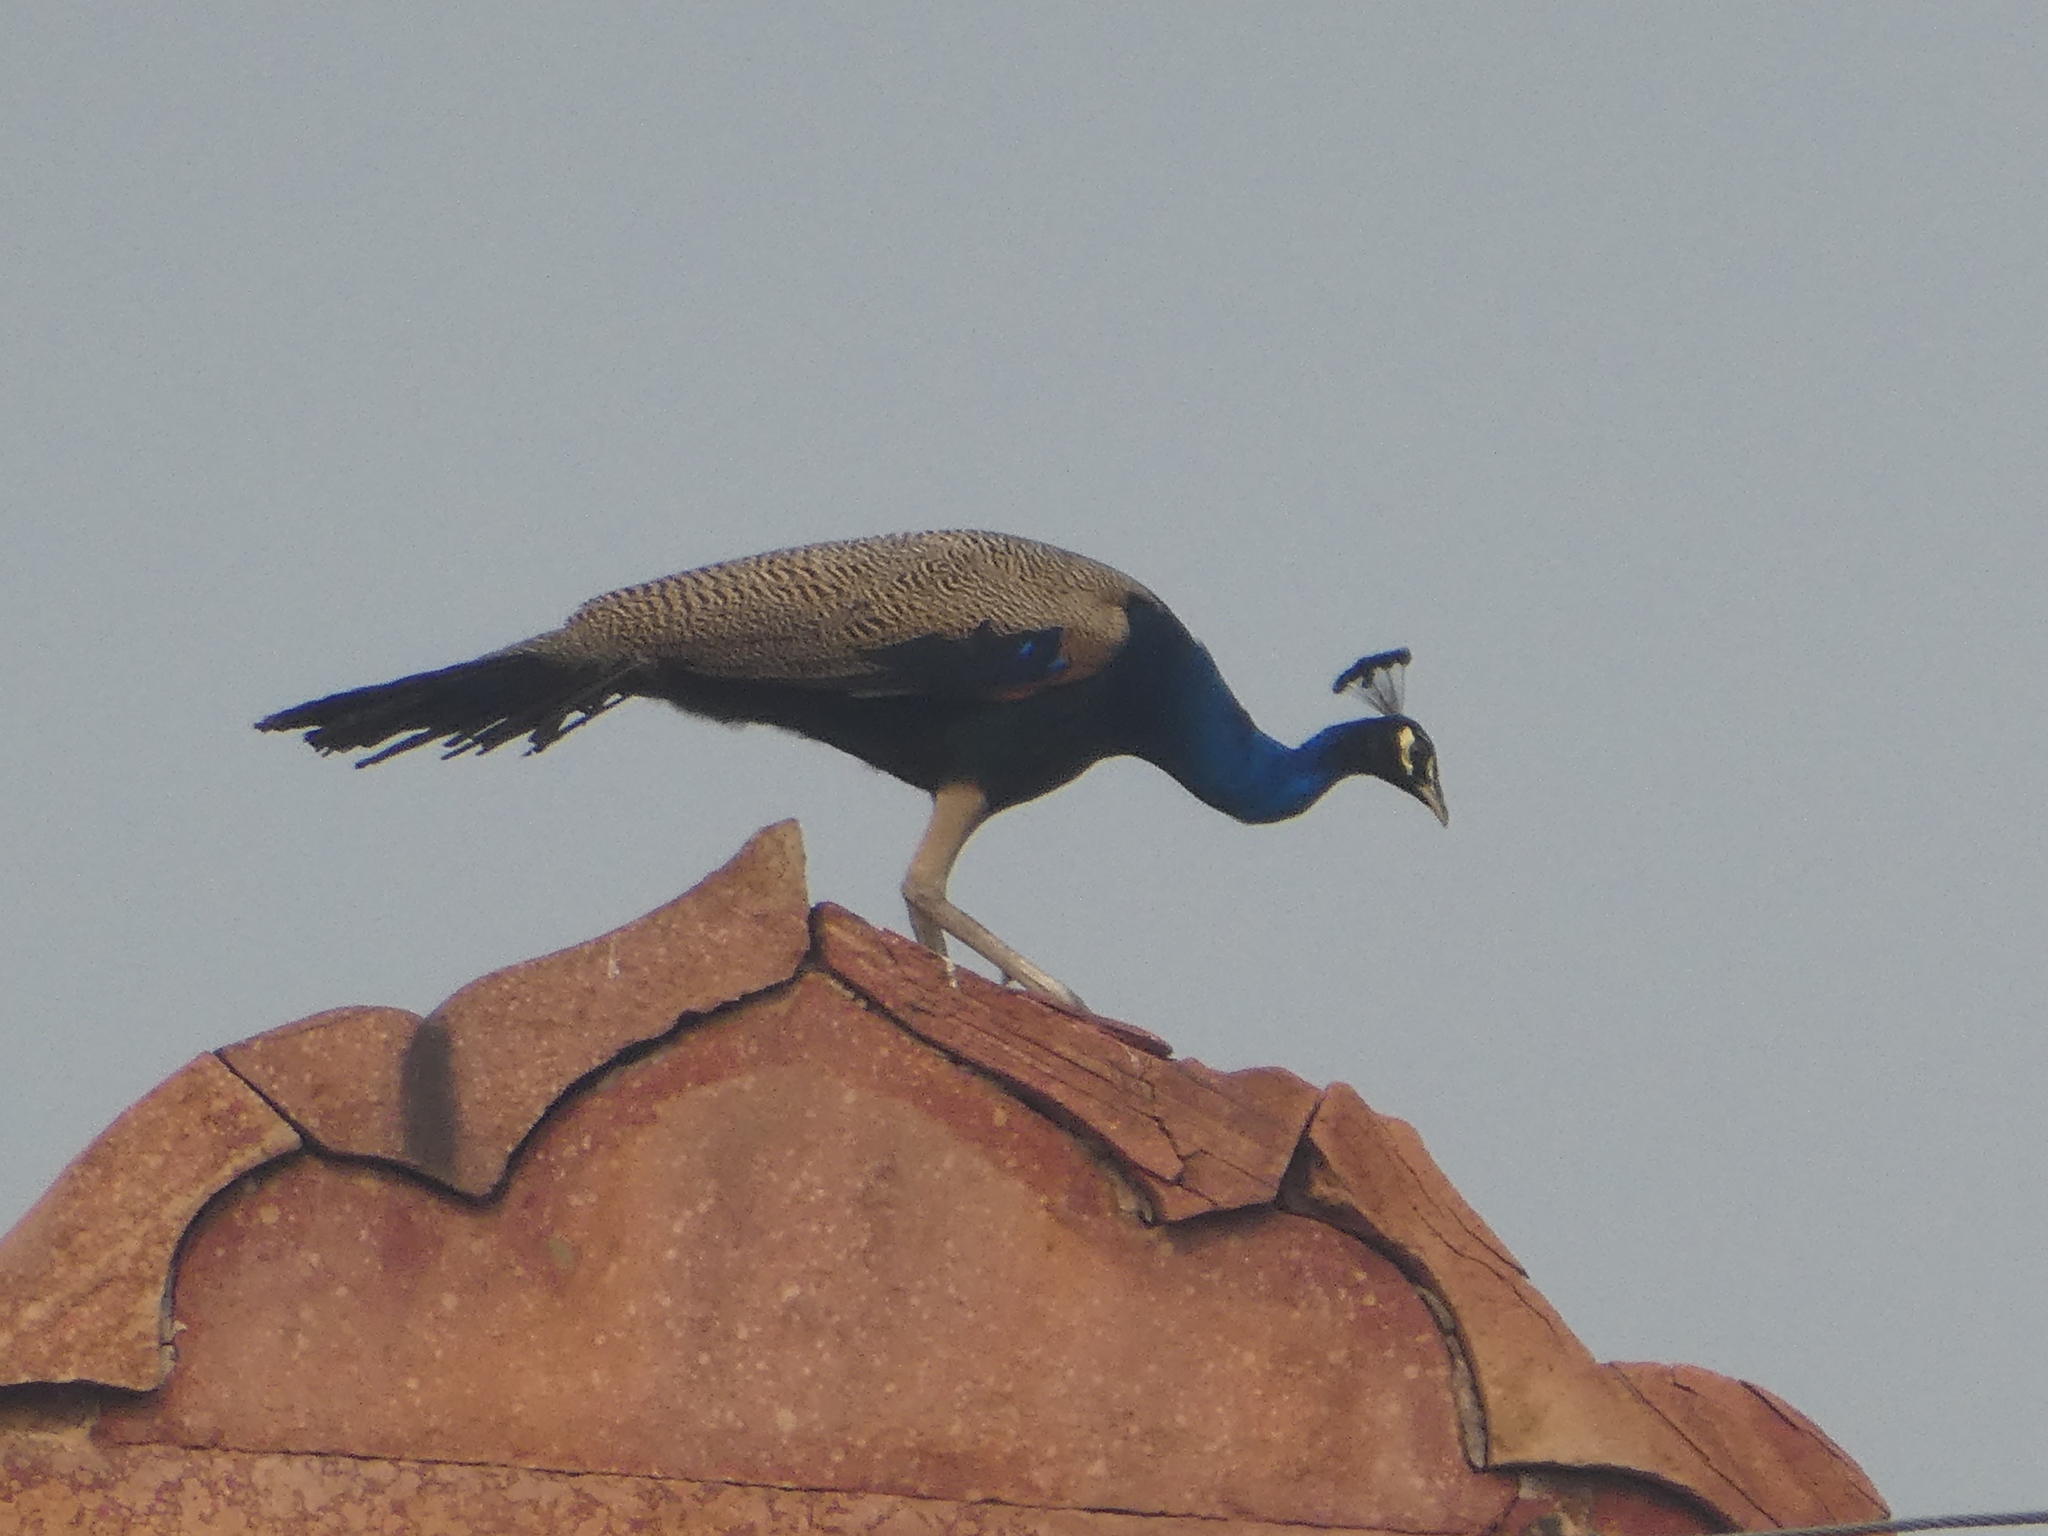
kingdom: Animalia
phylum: Chordata
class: Aves
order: Galliformes
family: Phasianidae
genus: Pavo
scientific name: Pavo cristatus
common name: Indian peafowl
